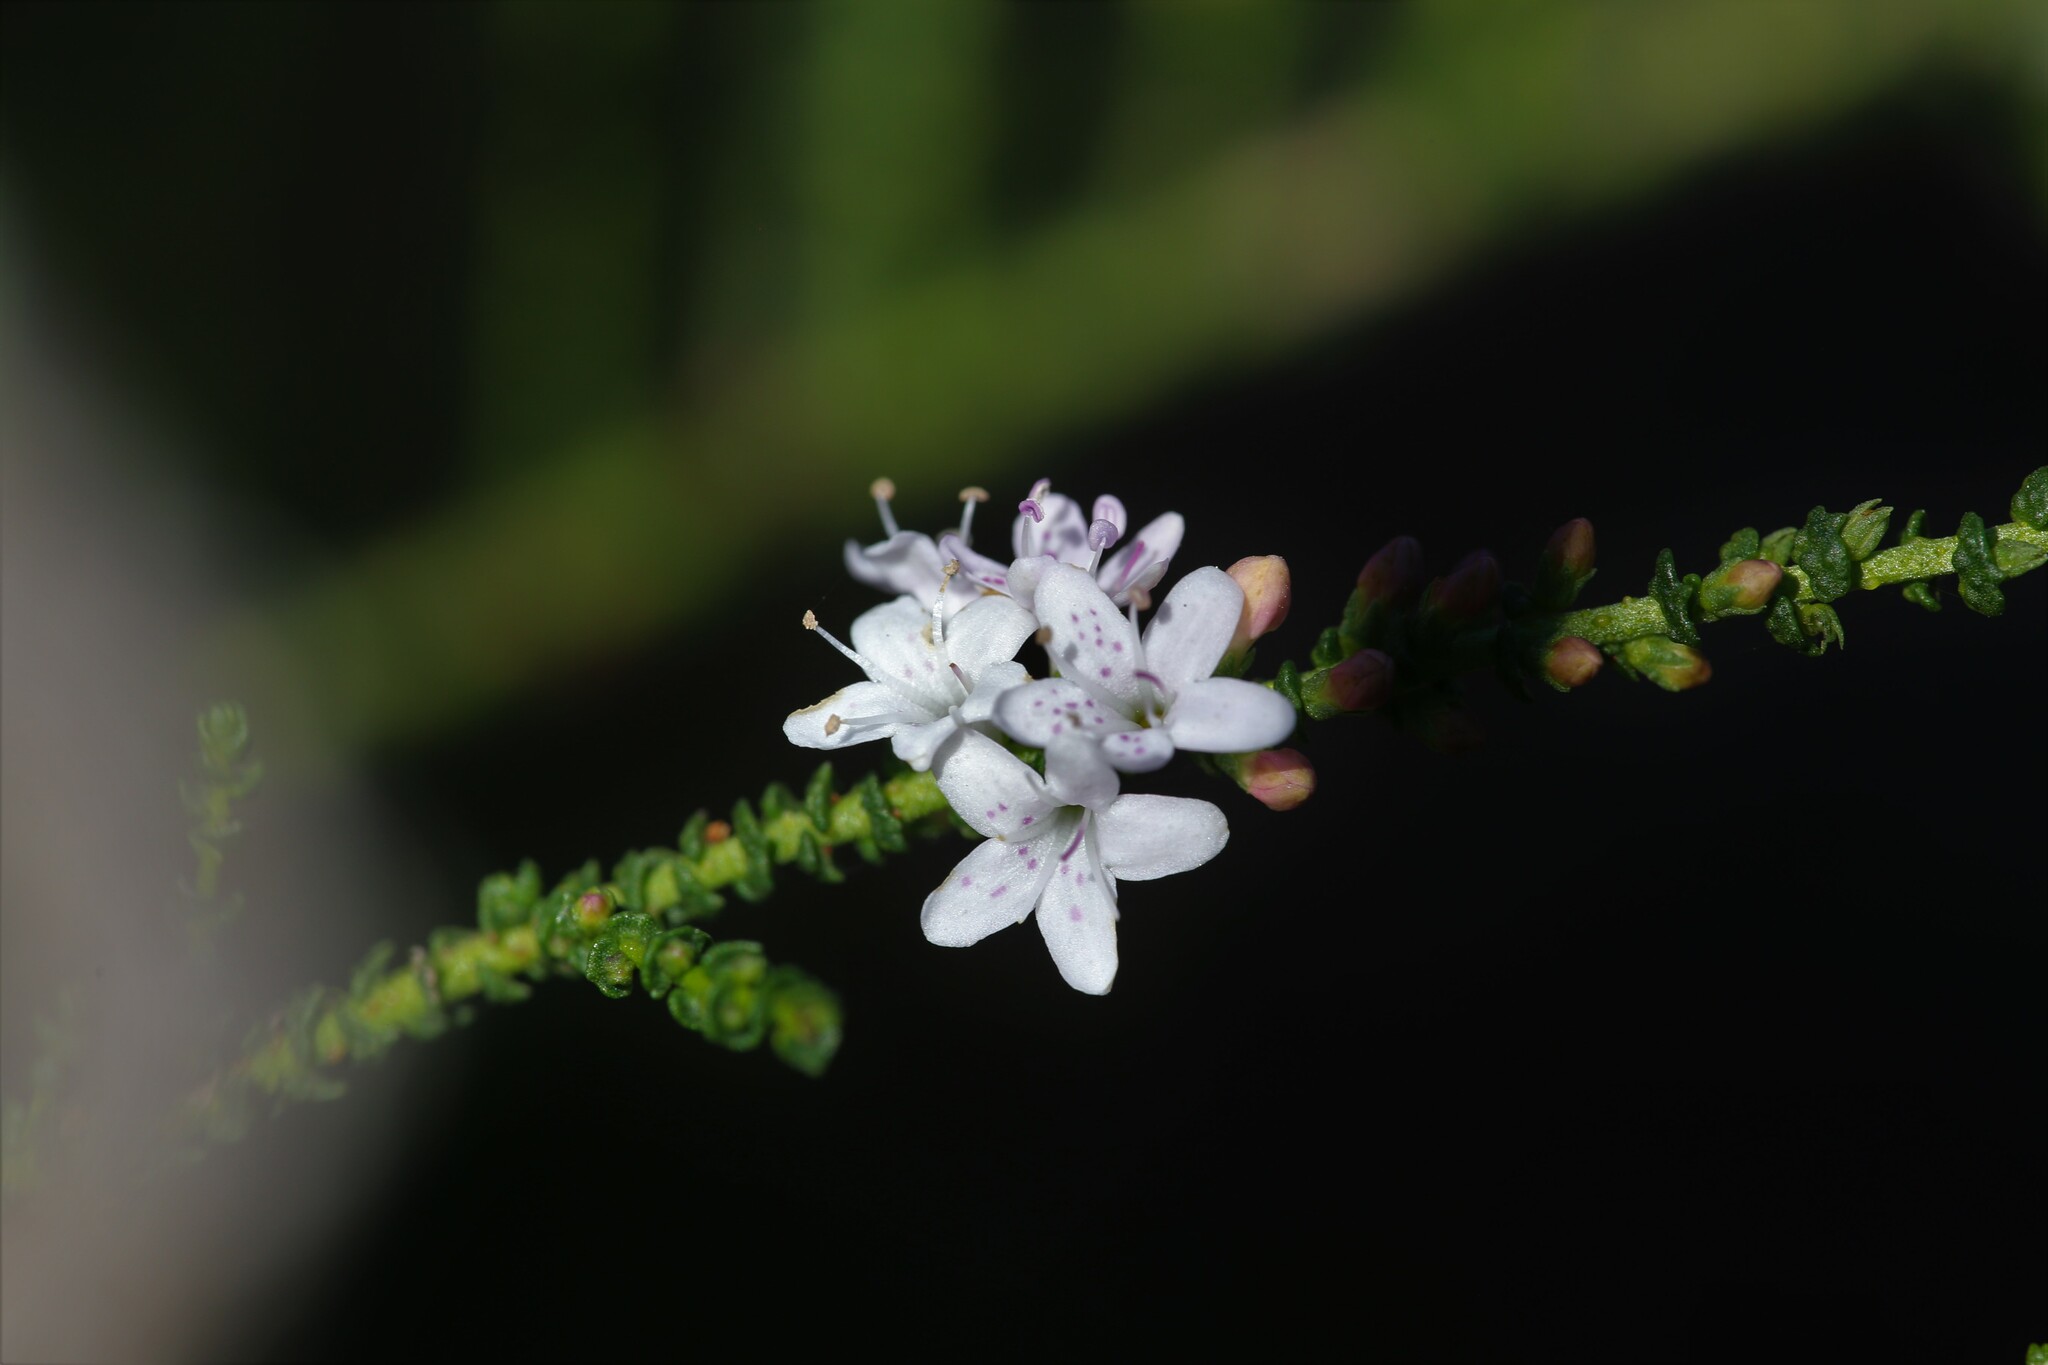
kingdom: Plantae
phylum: Tracheophyta
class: Magnoliopsida
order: Lamiales
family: Scrophulariaceae
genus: Myoporum
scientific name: Myoporum cordifolium
